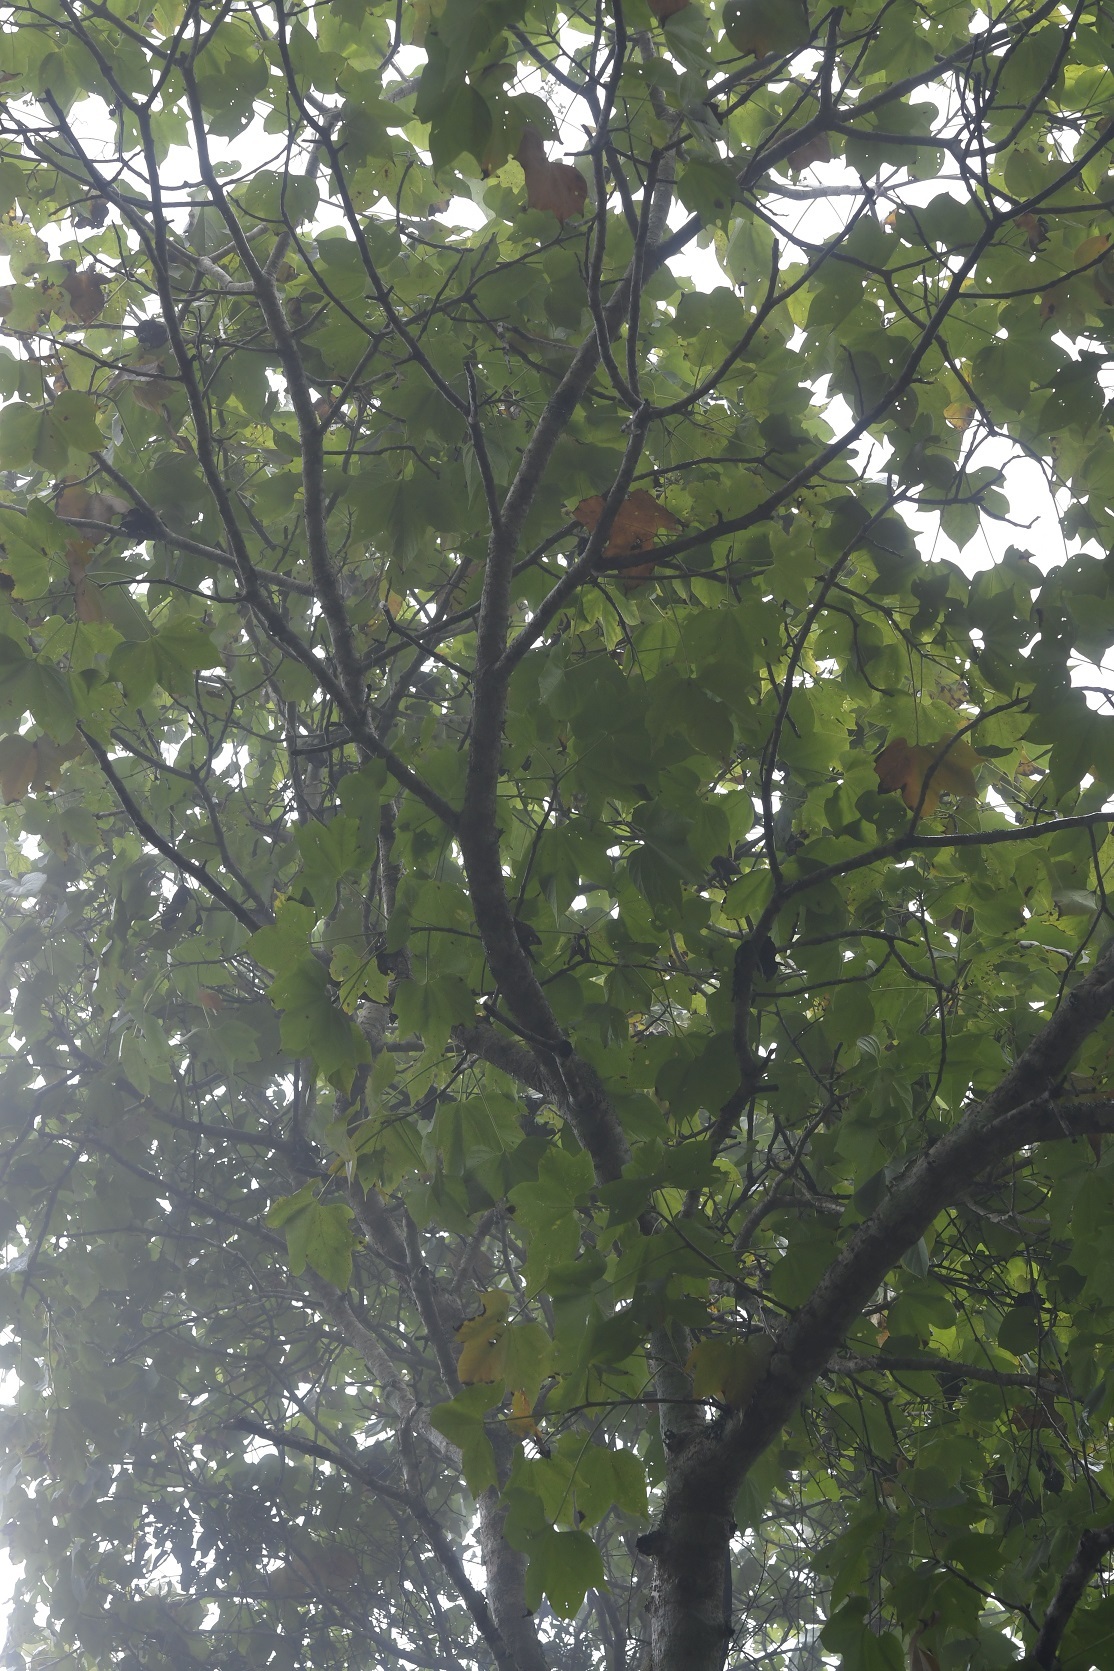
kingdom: Plantae
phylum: Tracheophyta
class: Magnoliopsida
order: Laurales
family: Hernandiaceae
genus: Gyrocarpus
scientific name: Gyrocarpus mocinoi
